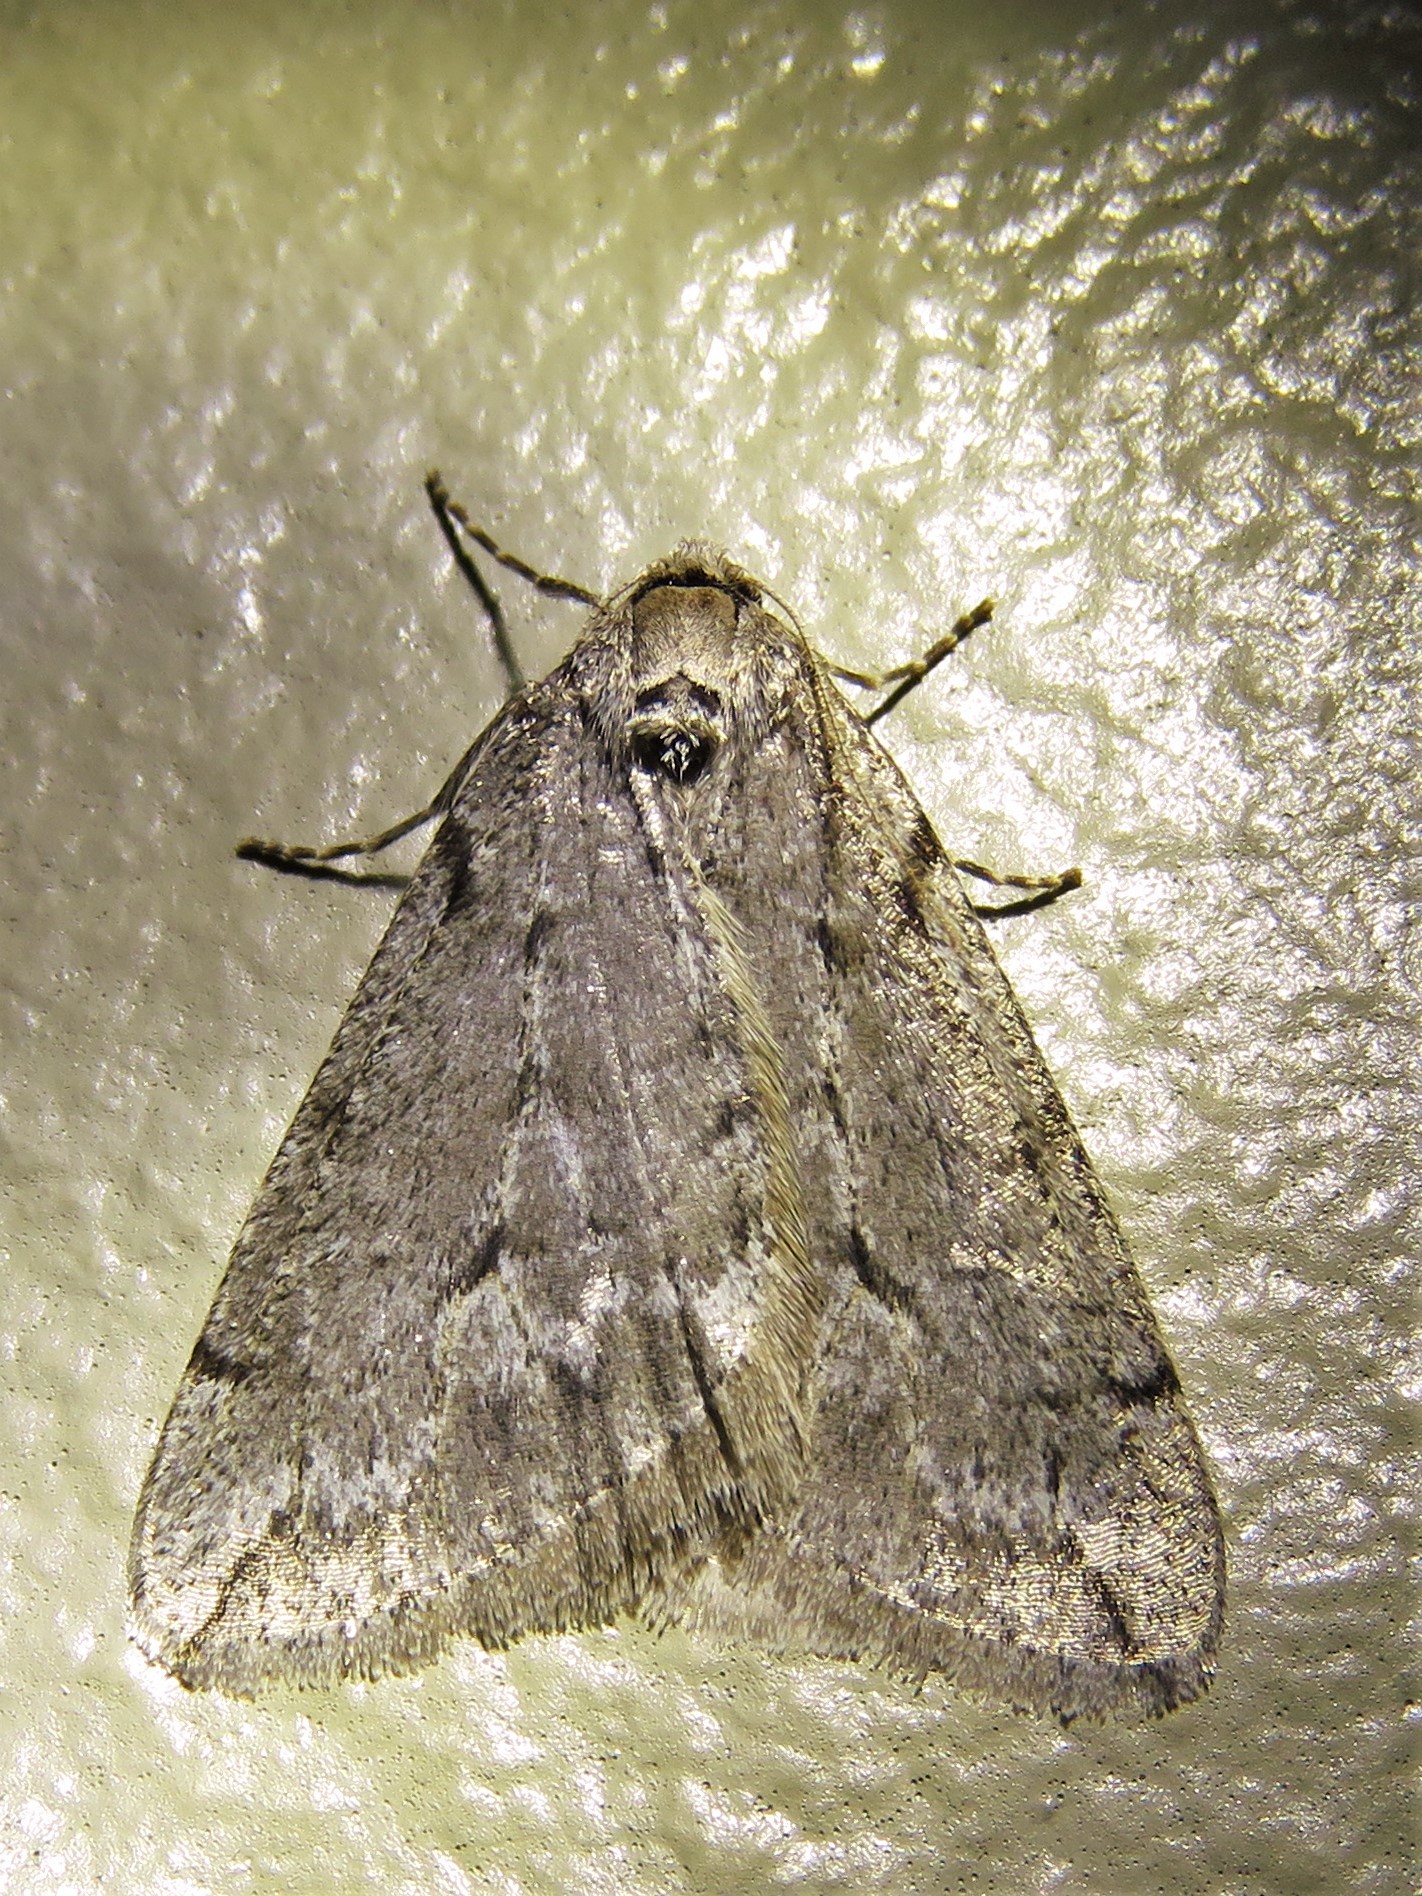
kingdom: Animalia
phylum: Arthropoda
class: Insecta
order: Lepidoptera
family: Geometridae
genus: Paleacrita
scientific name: Paleacrita vernata
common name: Spring cankerworm
